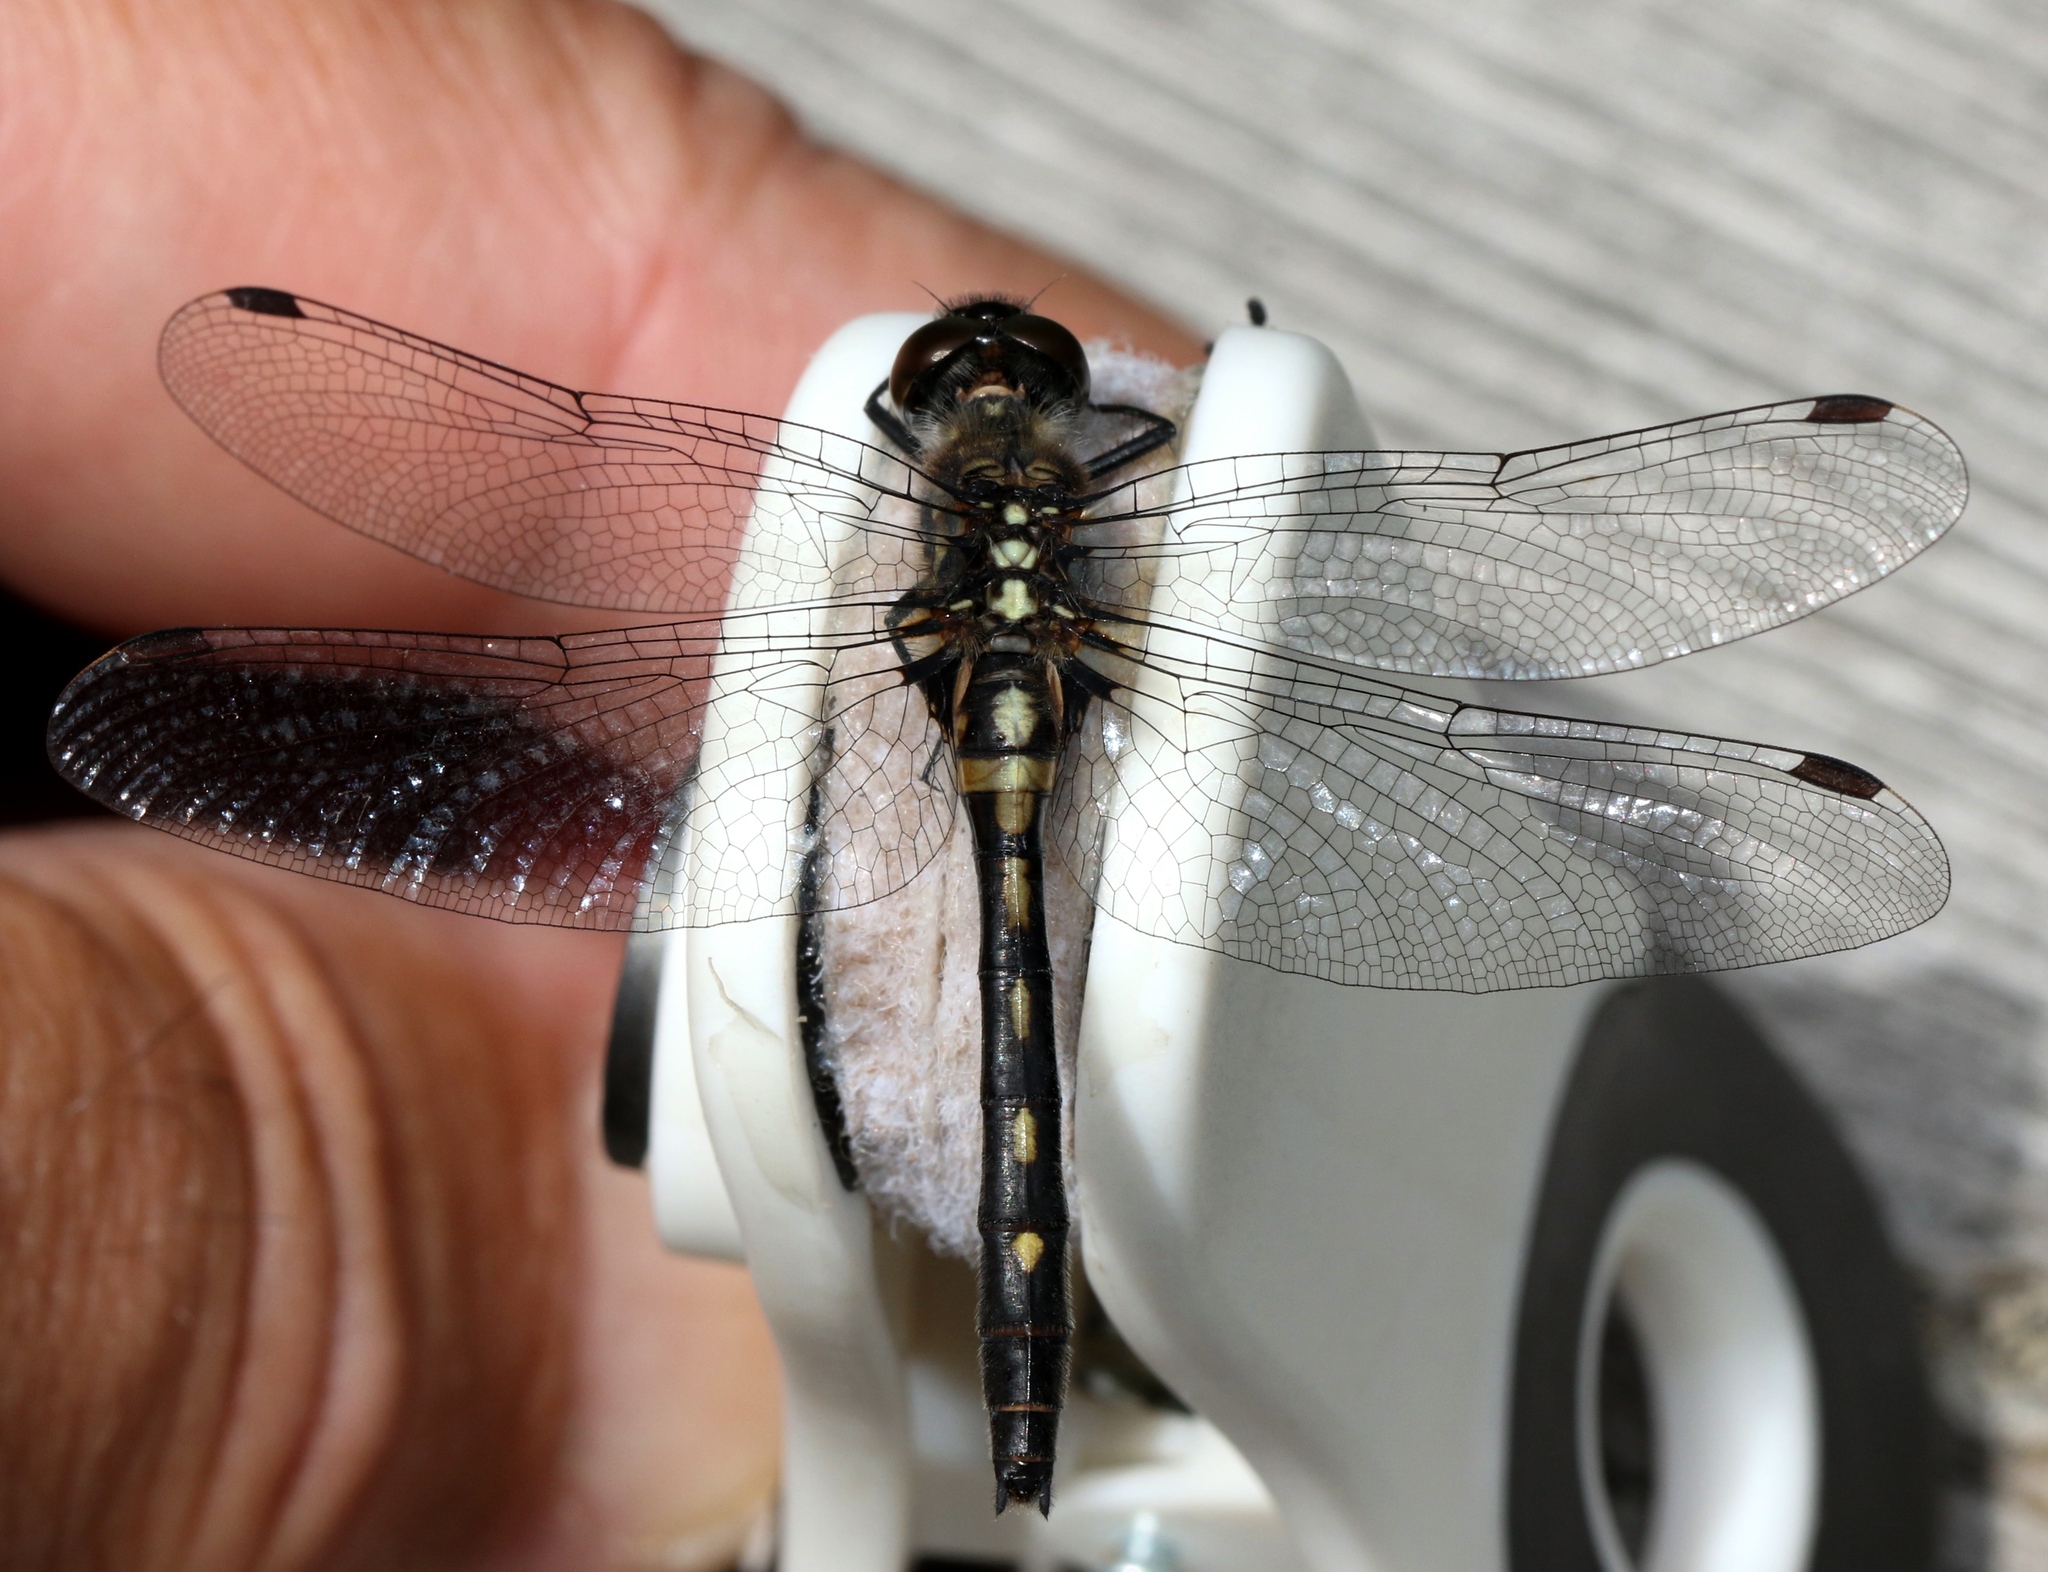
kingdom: Animalia
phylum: Arthropoda
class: Insecta
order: Odonata
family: Libellulidae
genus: Leucorrhinia
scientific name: Leucorrhinia glacialis
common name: Crimson-ringed whiteface
